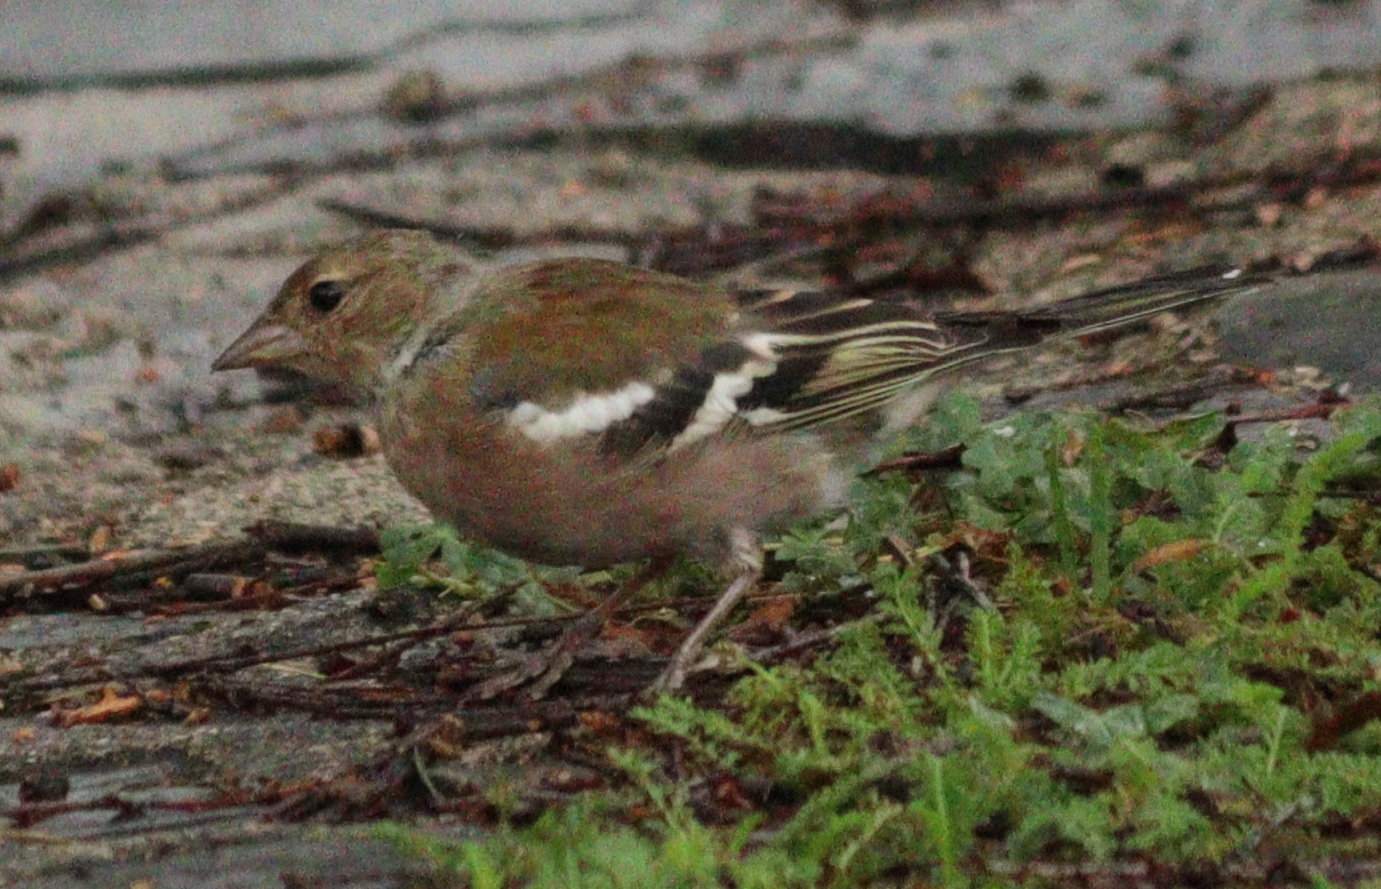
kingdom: Animalia
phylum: Chordata
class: Aves
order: Passeriformes
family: Fringillidae
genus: Fringilla
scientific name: Fringilla coelebs
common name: Common chaffinch
